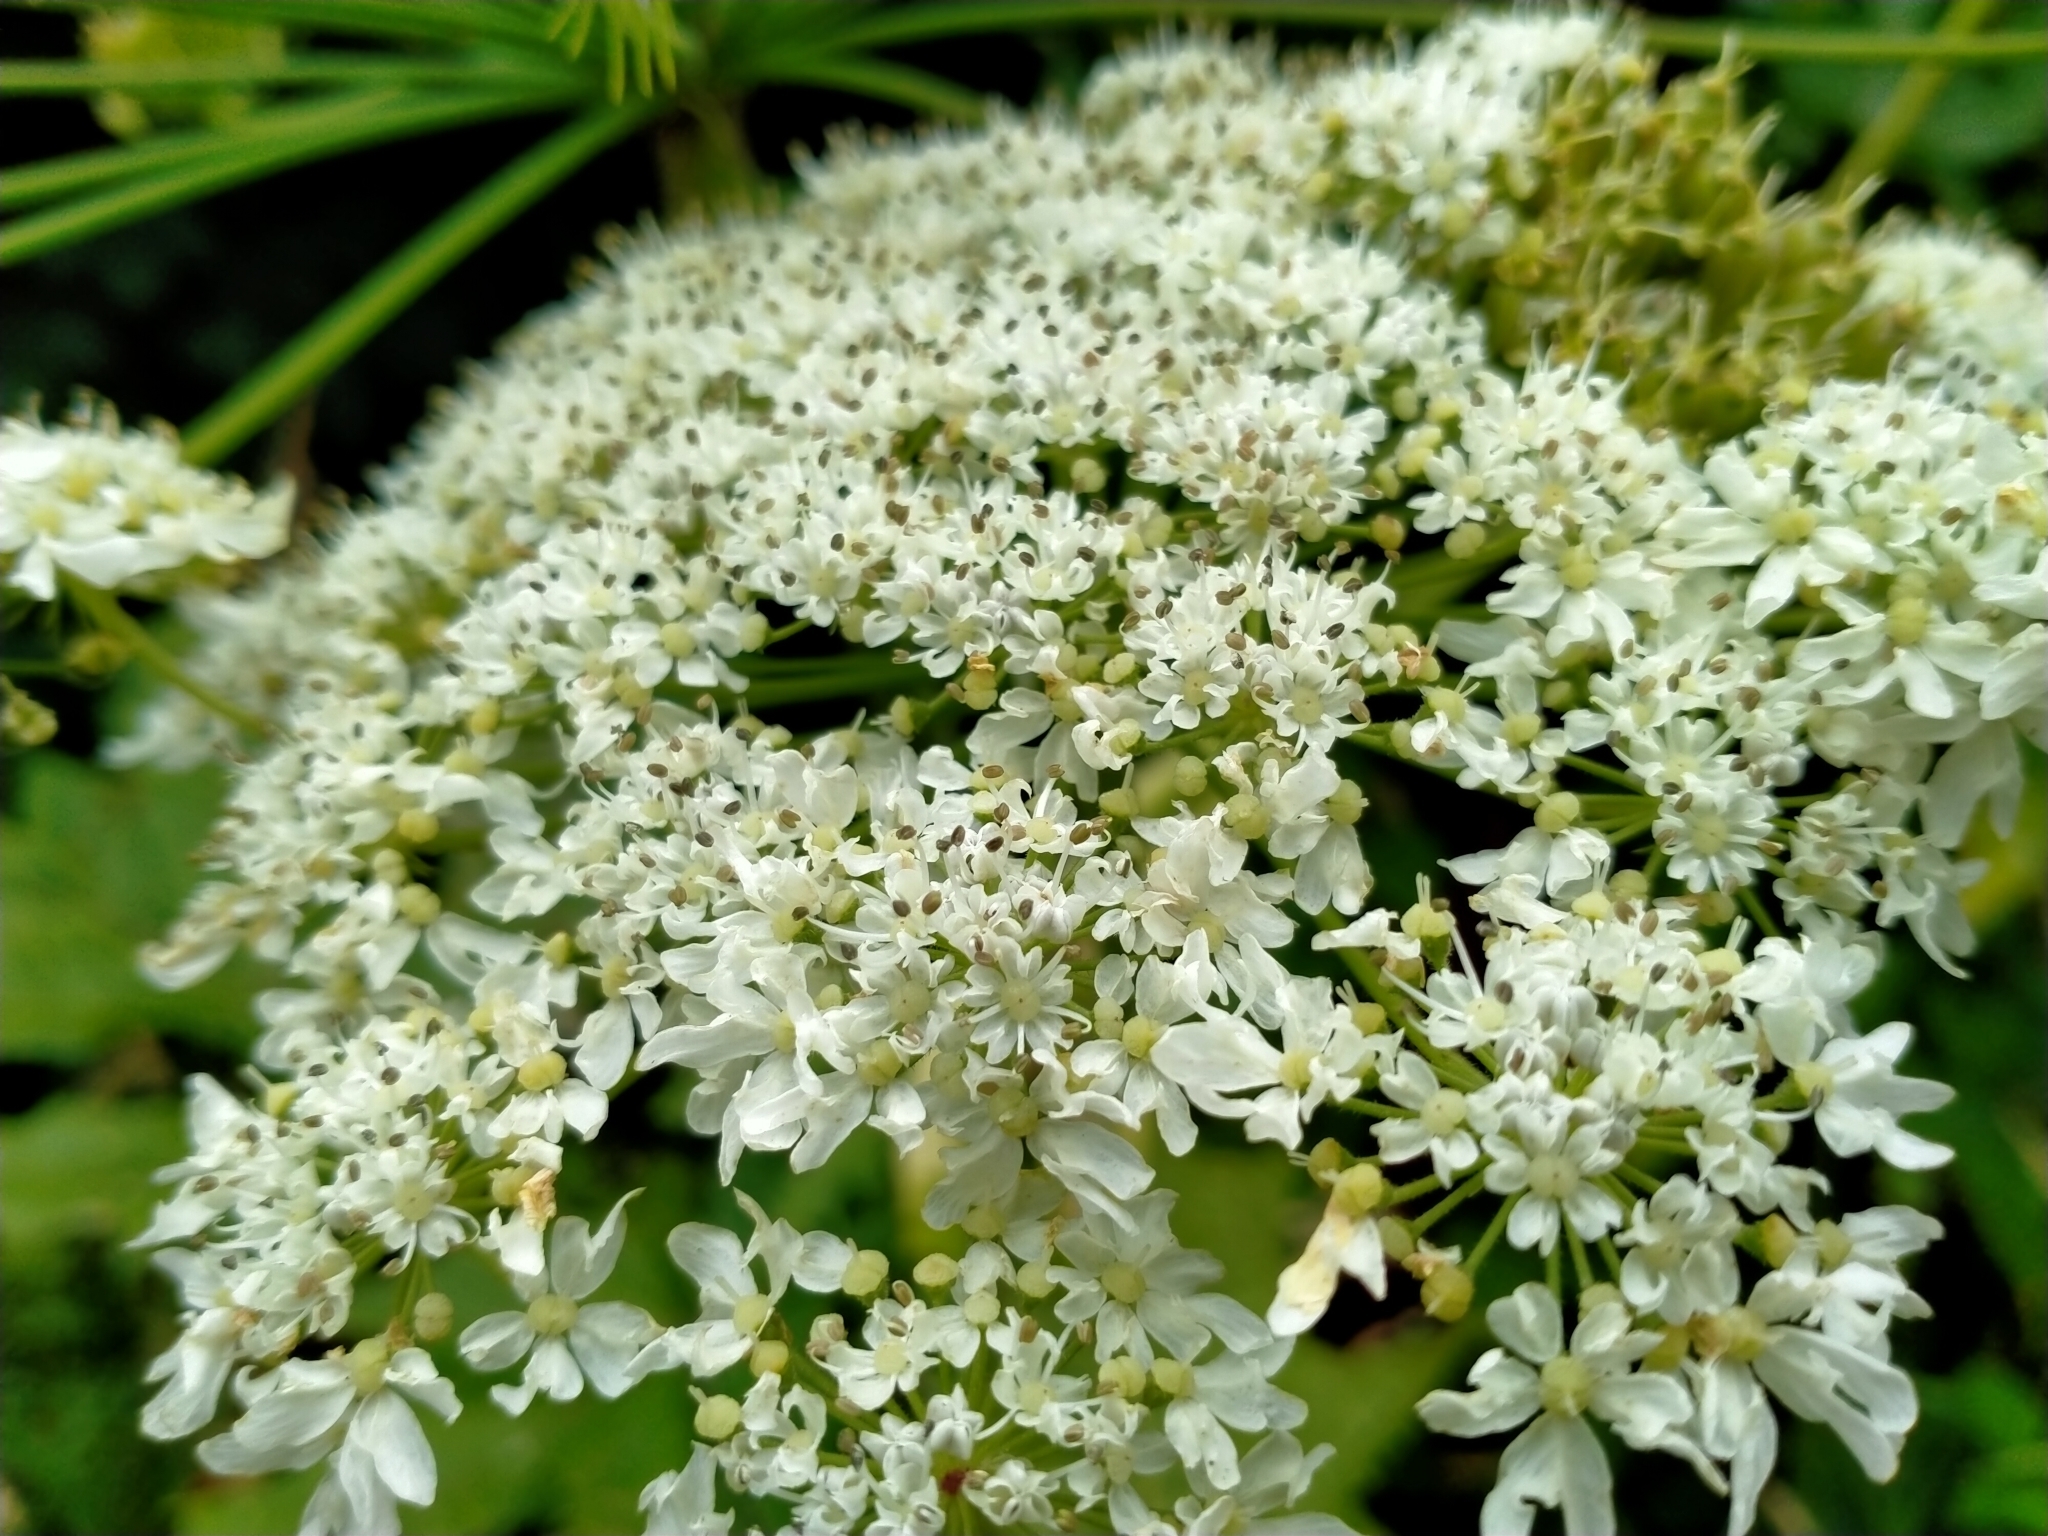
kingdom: Plantae
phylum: Tracheophyta
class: Magnoliopsida
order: Apiales
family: Apiaceae
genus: Heracleum
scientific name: Heracleum mantegazzianum
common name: Giant hogweed
